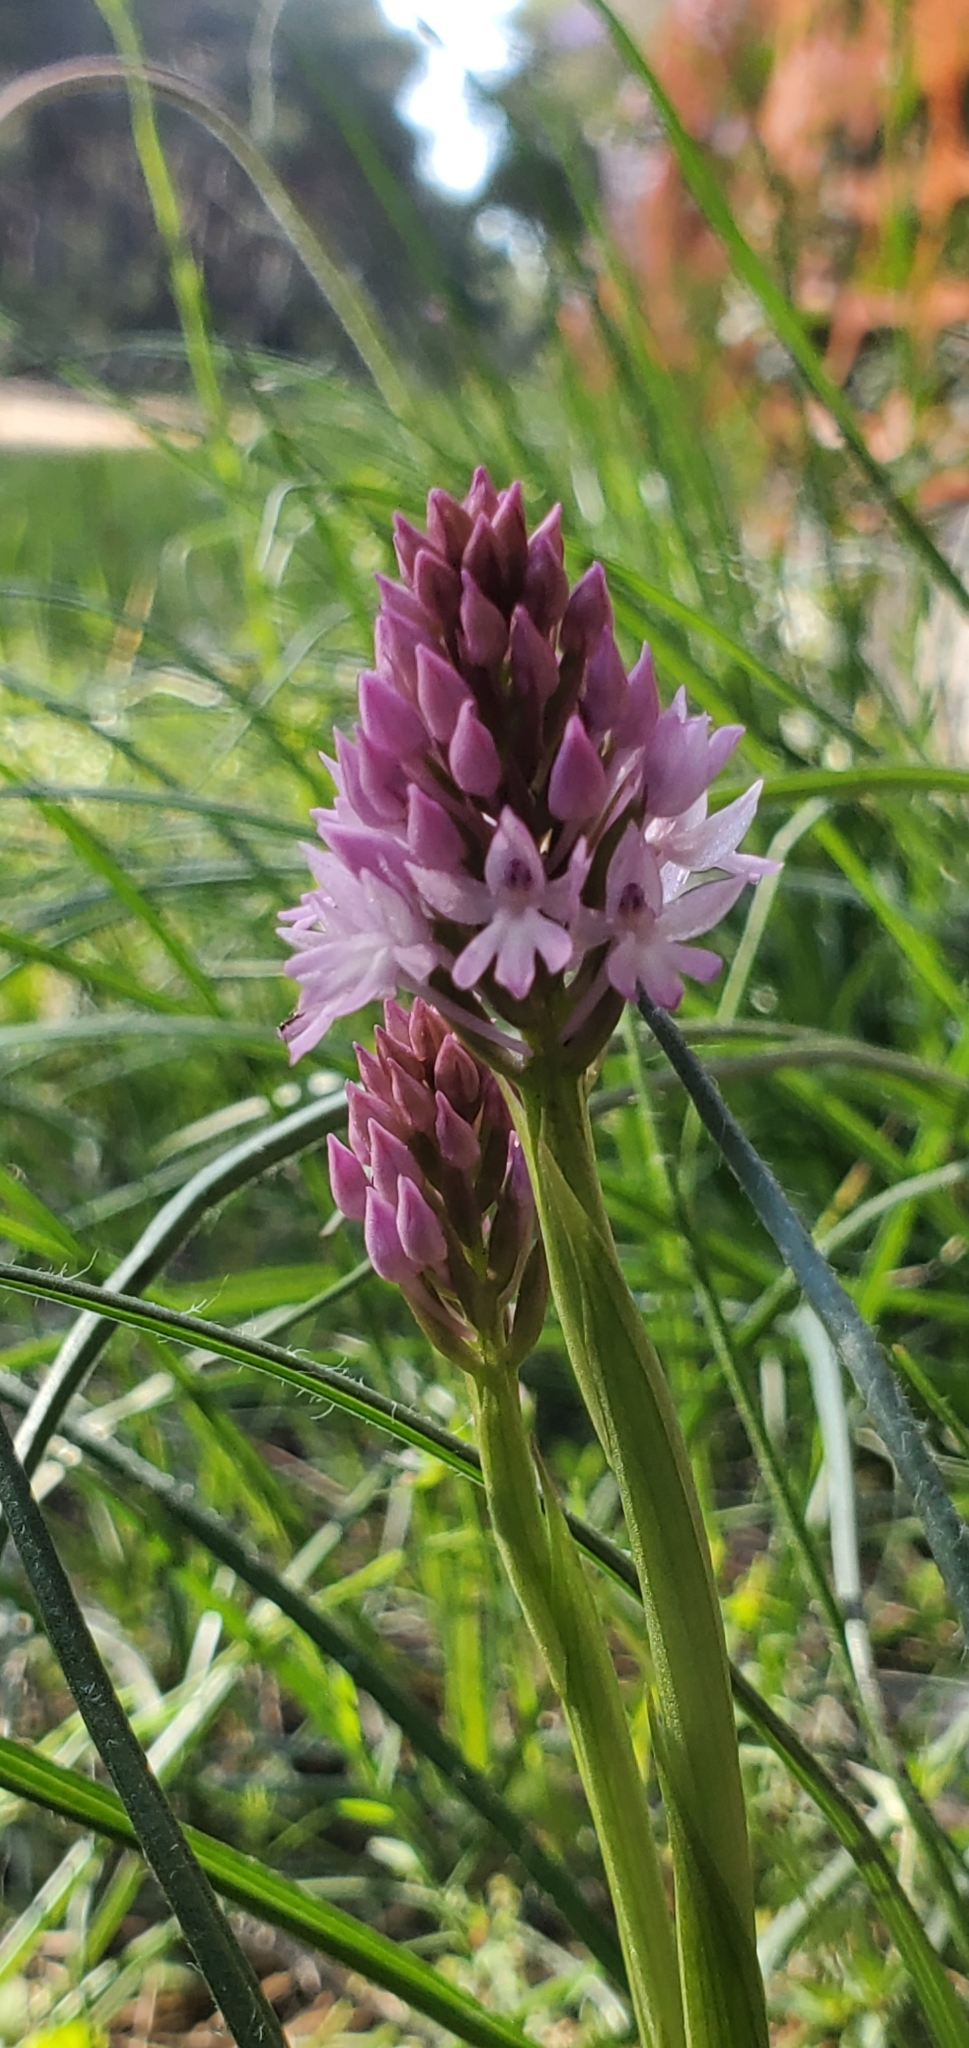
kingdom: Plantae
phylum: Tracheophyta
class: Liliopsida
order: Asparagales
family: Orchidaceae
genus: Anacamptis
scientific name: Anacamptis pyramidalis
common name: Pyramidal orchid
